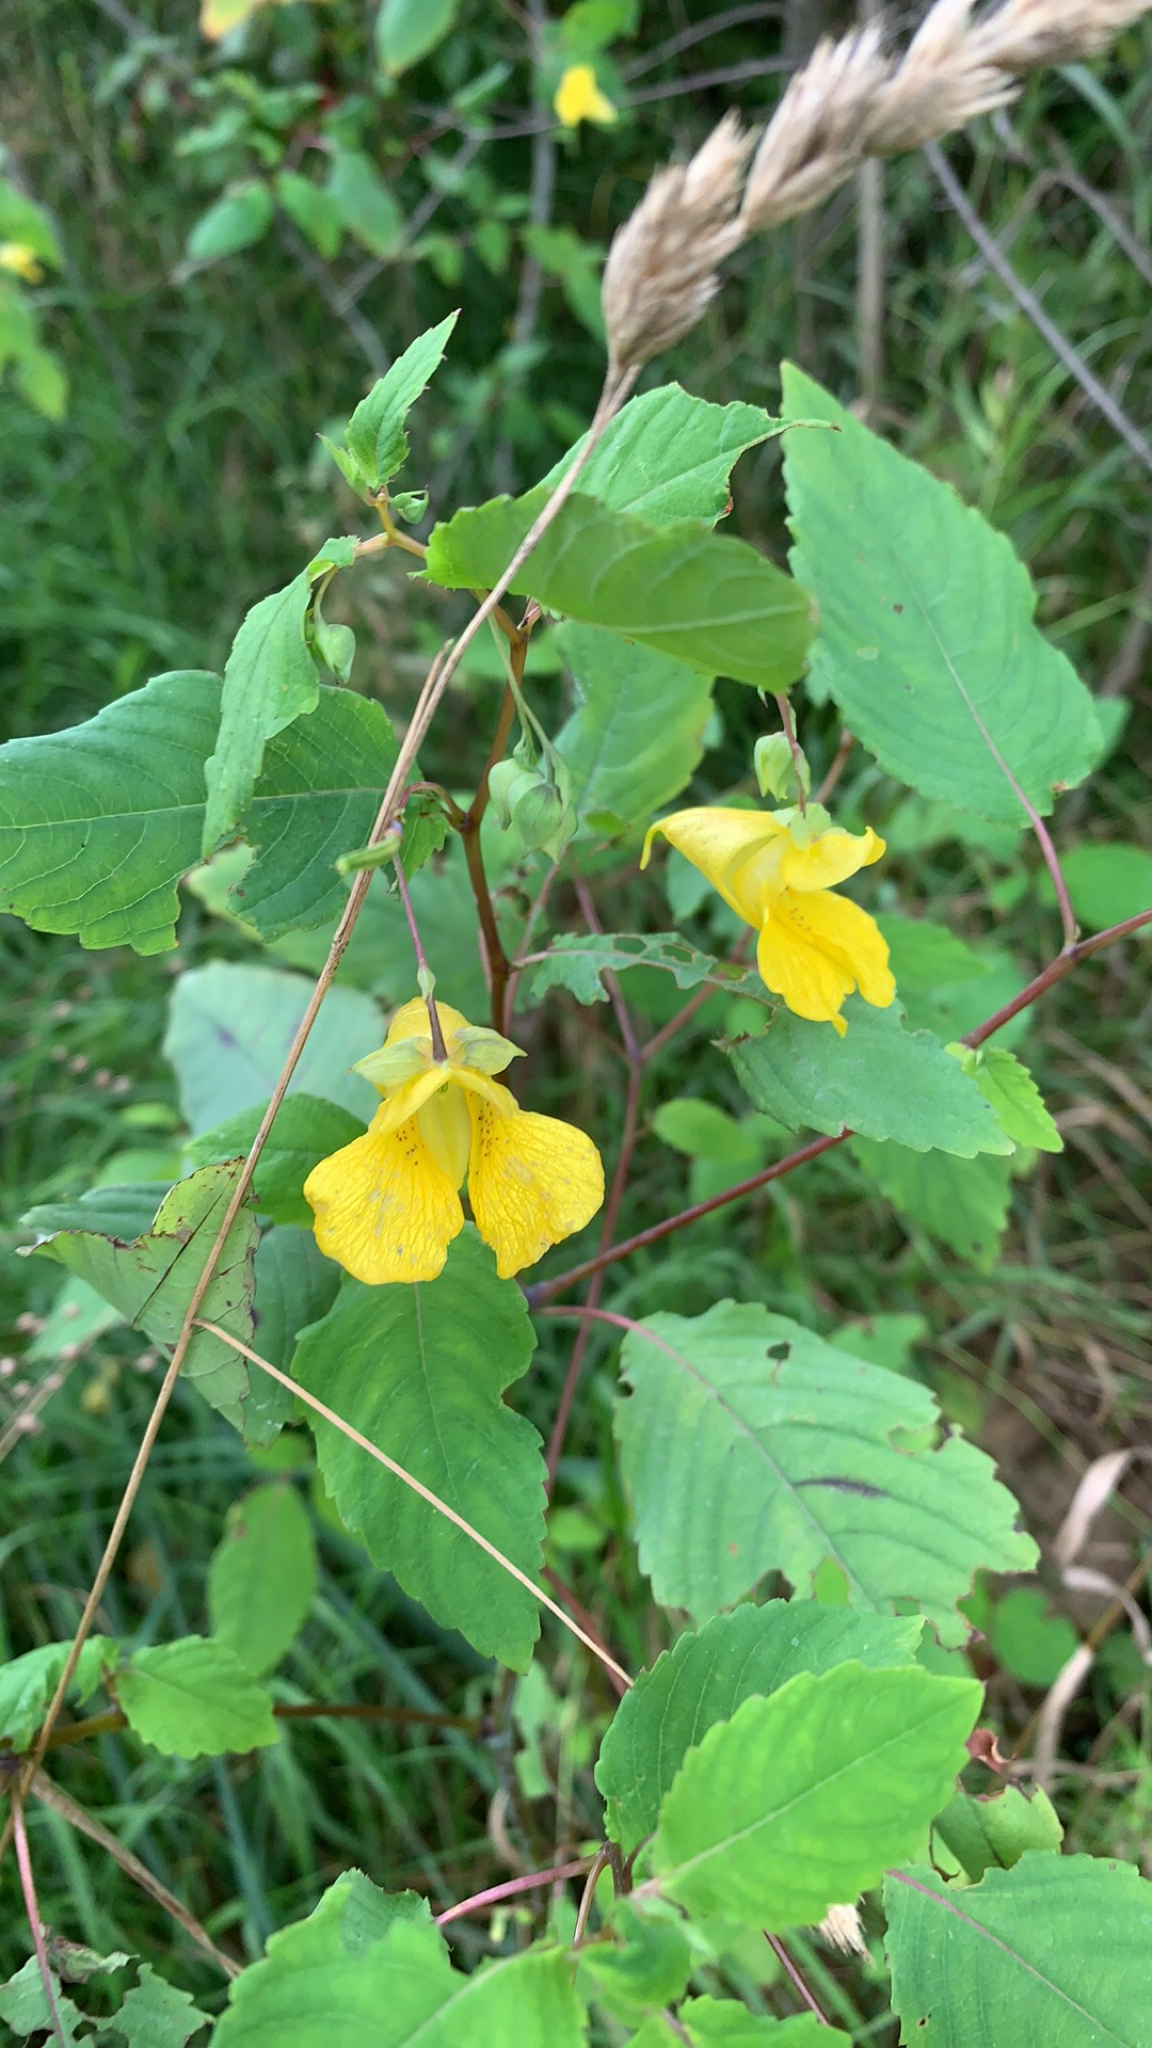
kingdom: Plantae
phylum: Tracheophyta
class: Magnoliopsida
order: Ericales
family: Balsaminaceae
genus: Impatiens
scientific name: Impatiens pallida
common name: Pale snapweed
